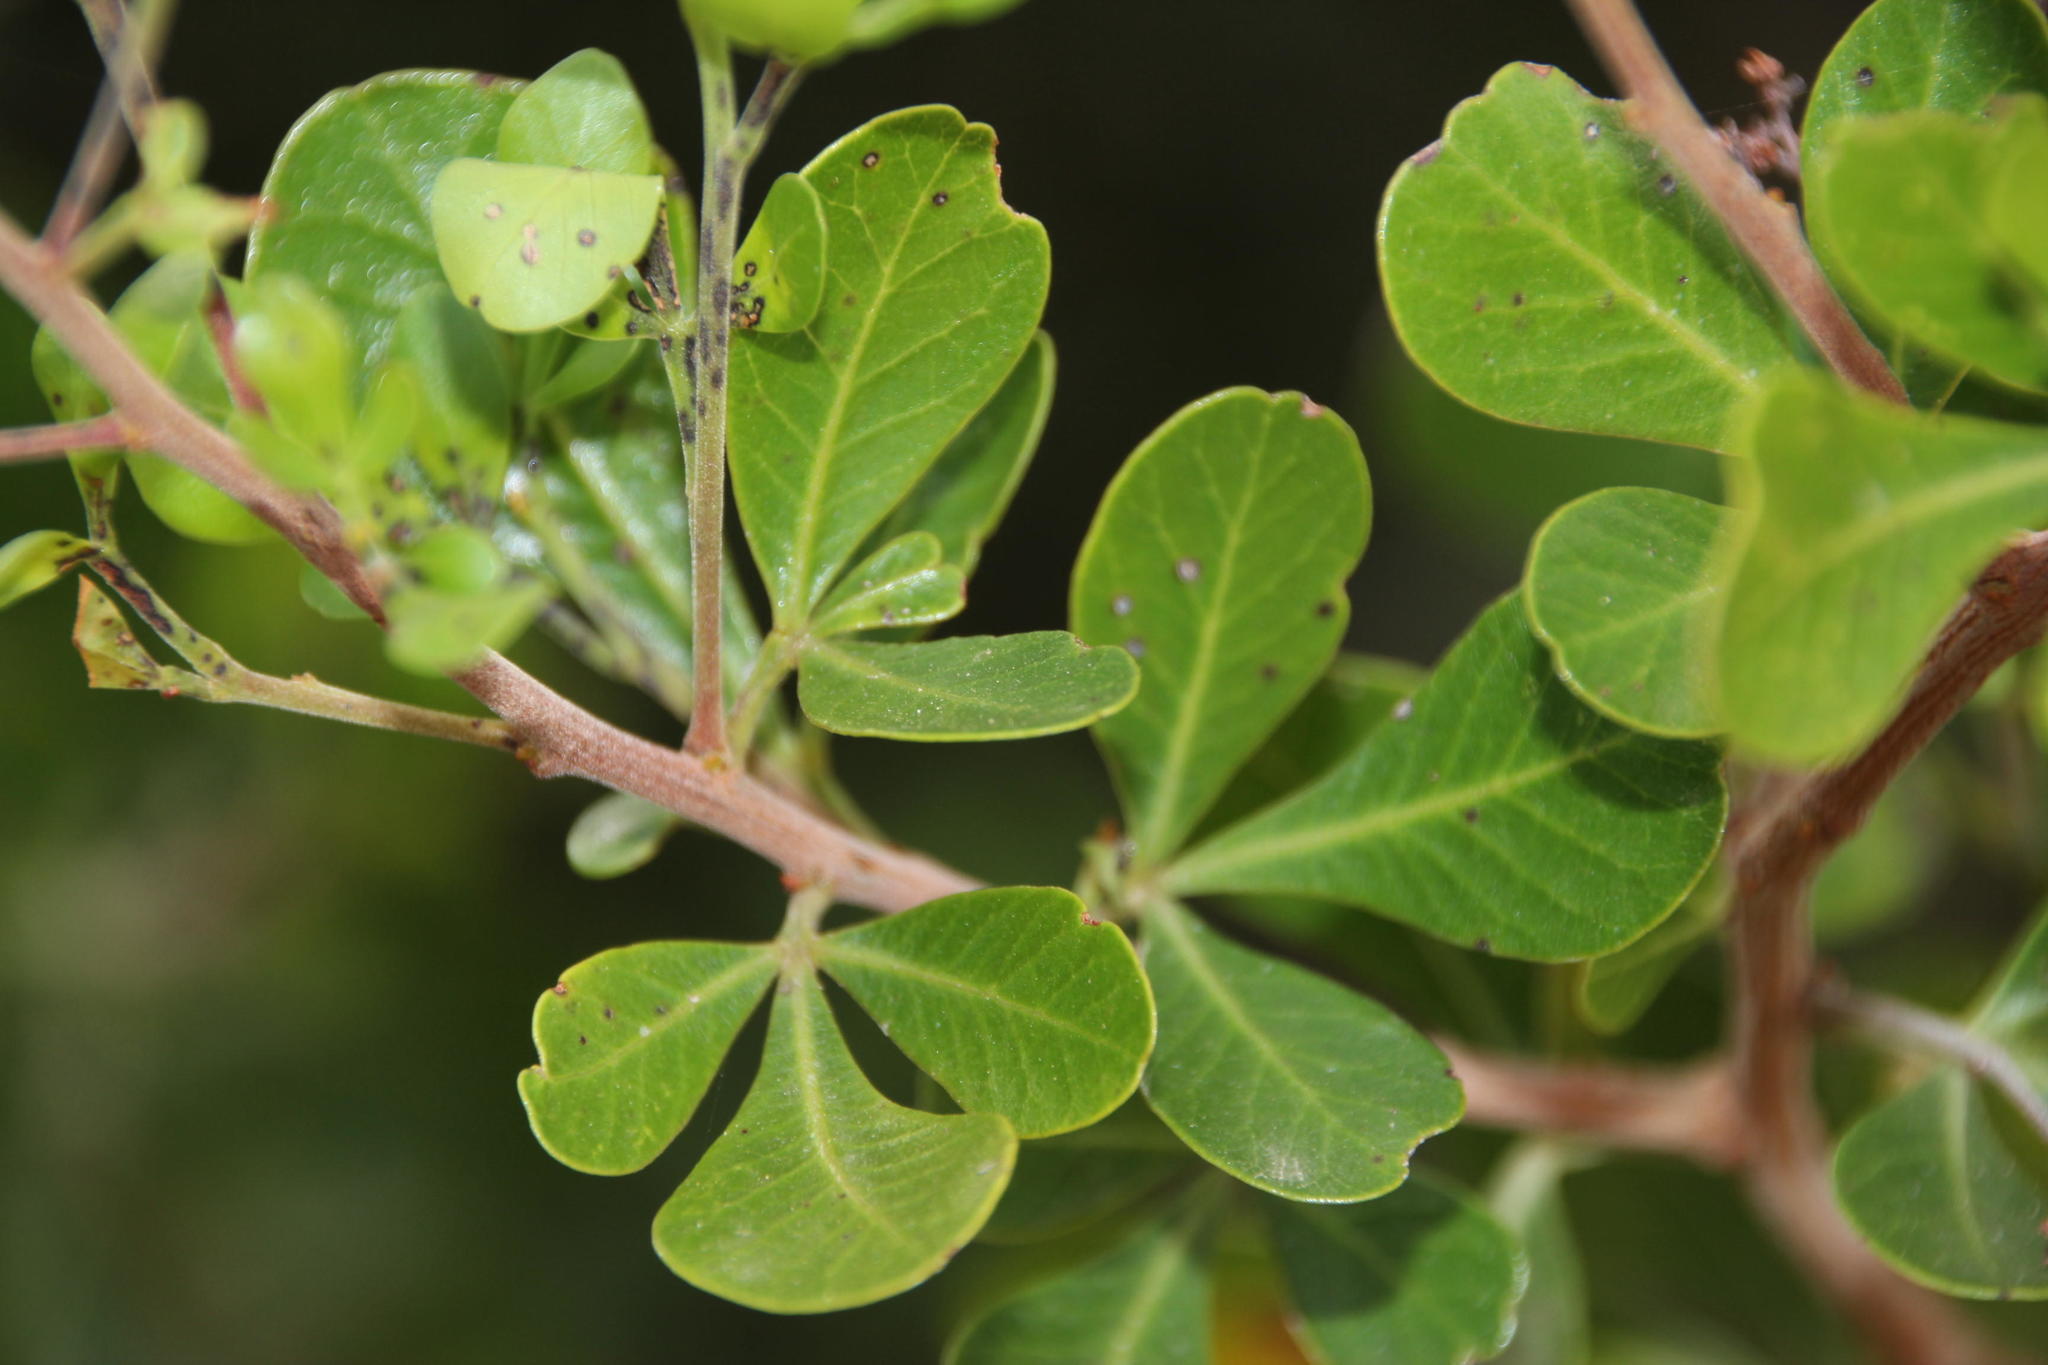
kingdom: Plantae
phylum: Tracheophyta
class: Magnoliopsida
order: Sapindales
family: Anacardiaceae
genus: Searsia
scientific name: Searsia glauca
